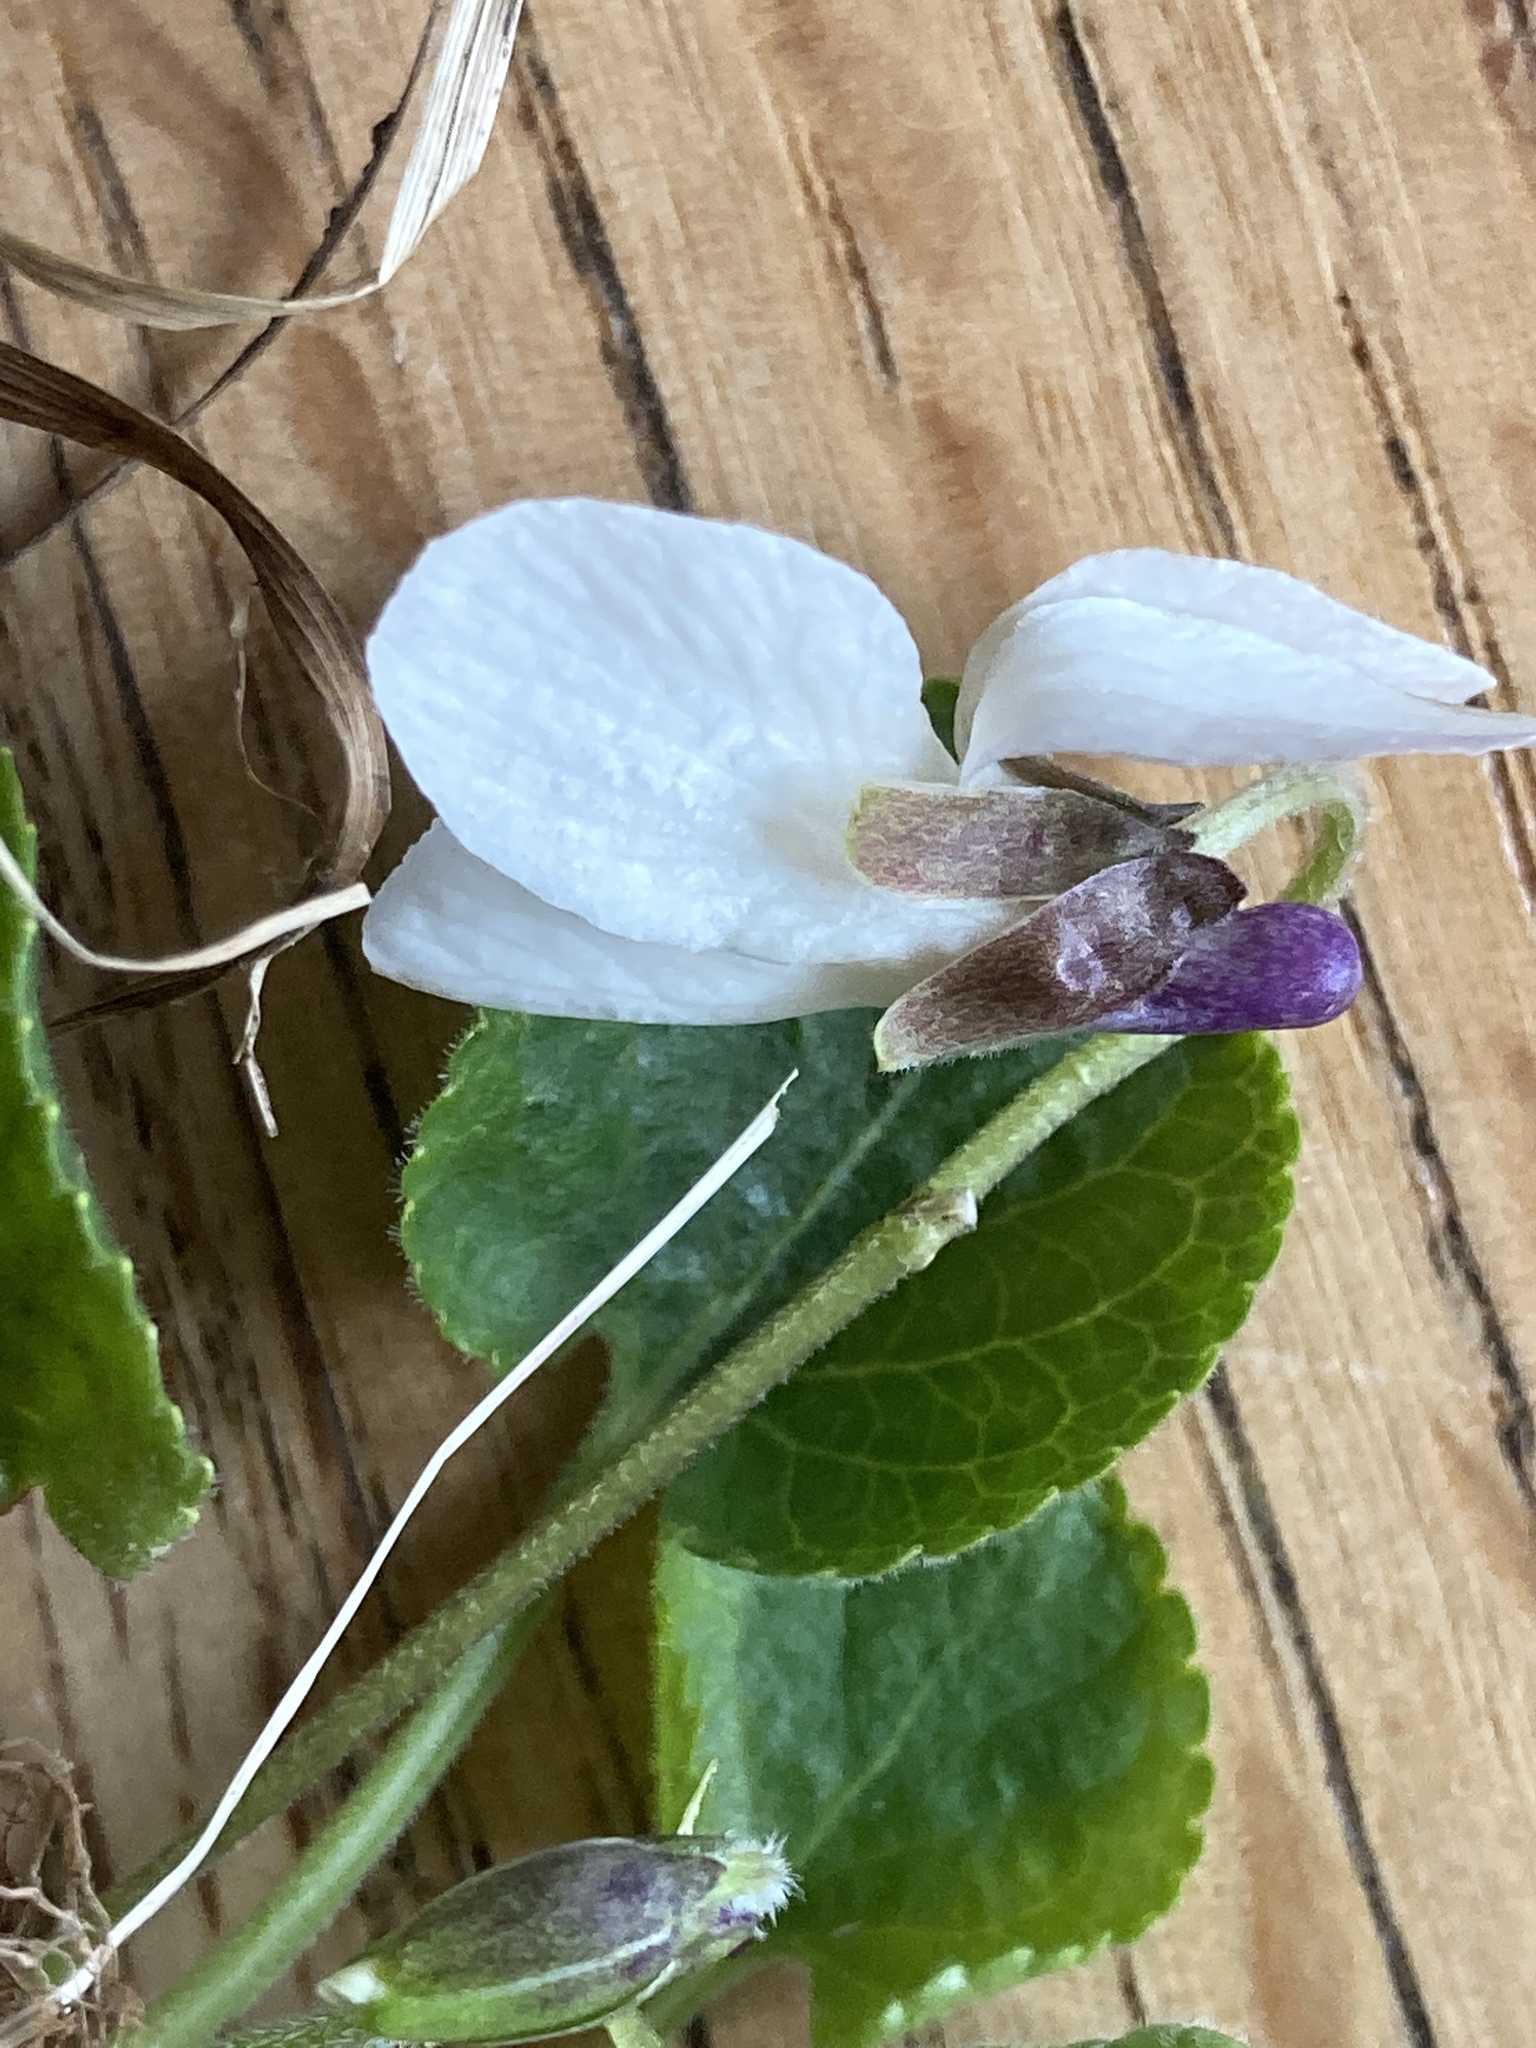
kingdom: Plantae
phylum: Tracheophyta
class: Magnoliopsida
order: Malpighiales
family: Violaceae
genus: Viola
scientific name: Viola odorata
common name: Sweet violet
